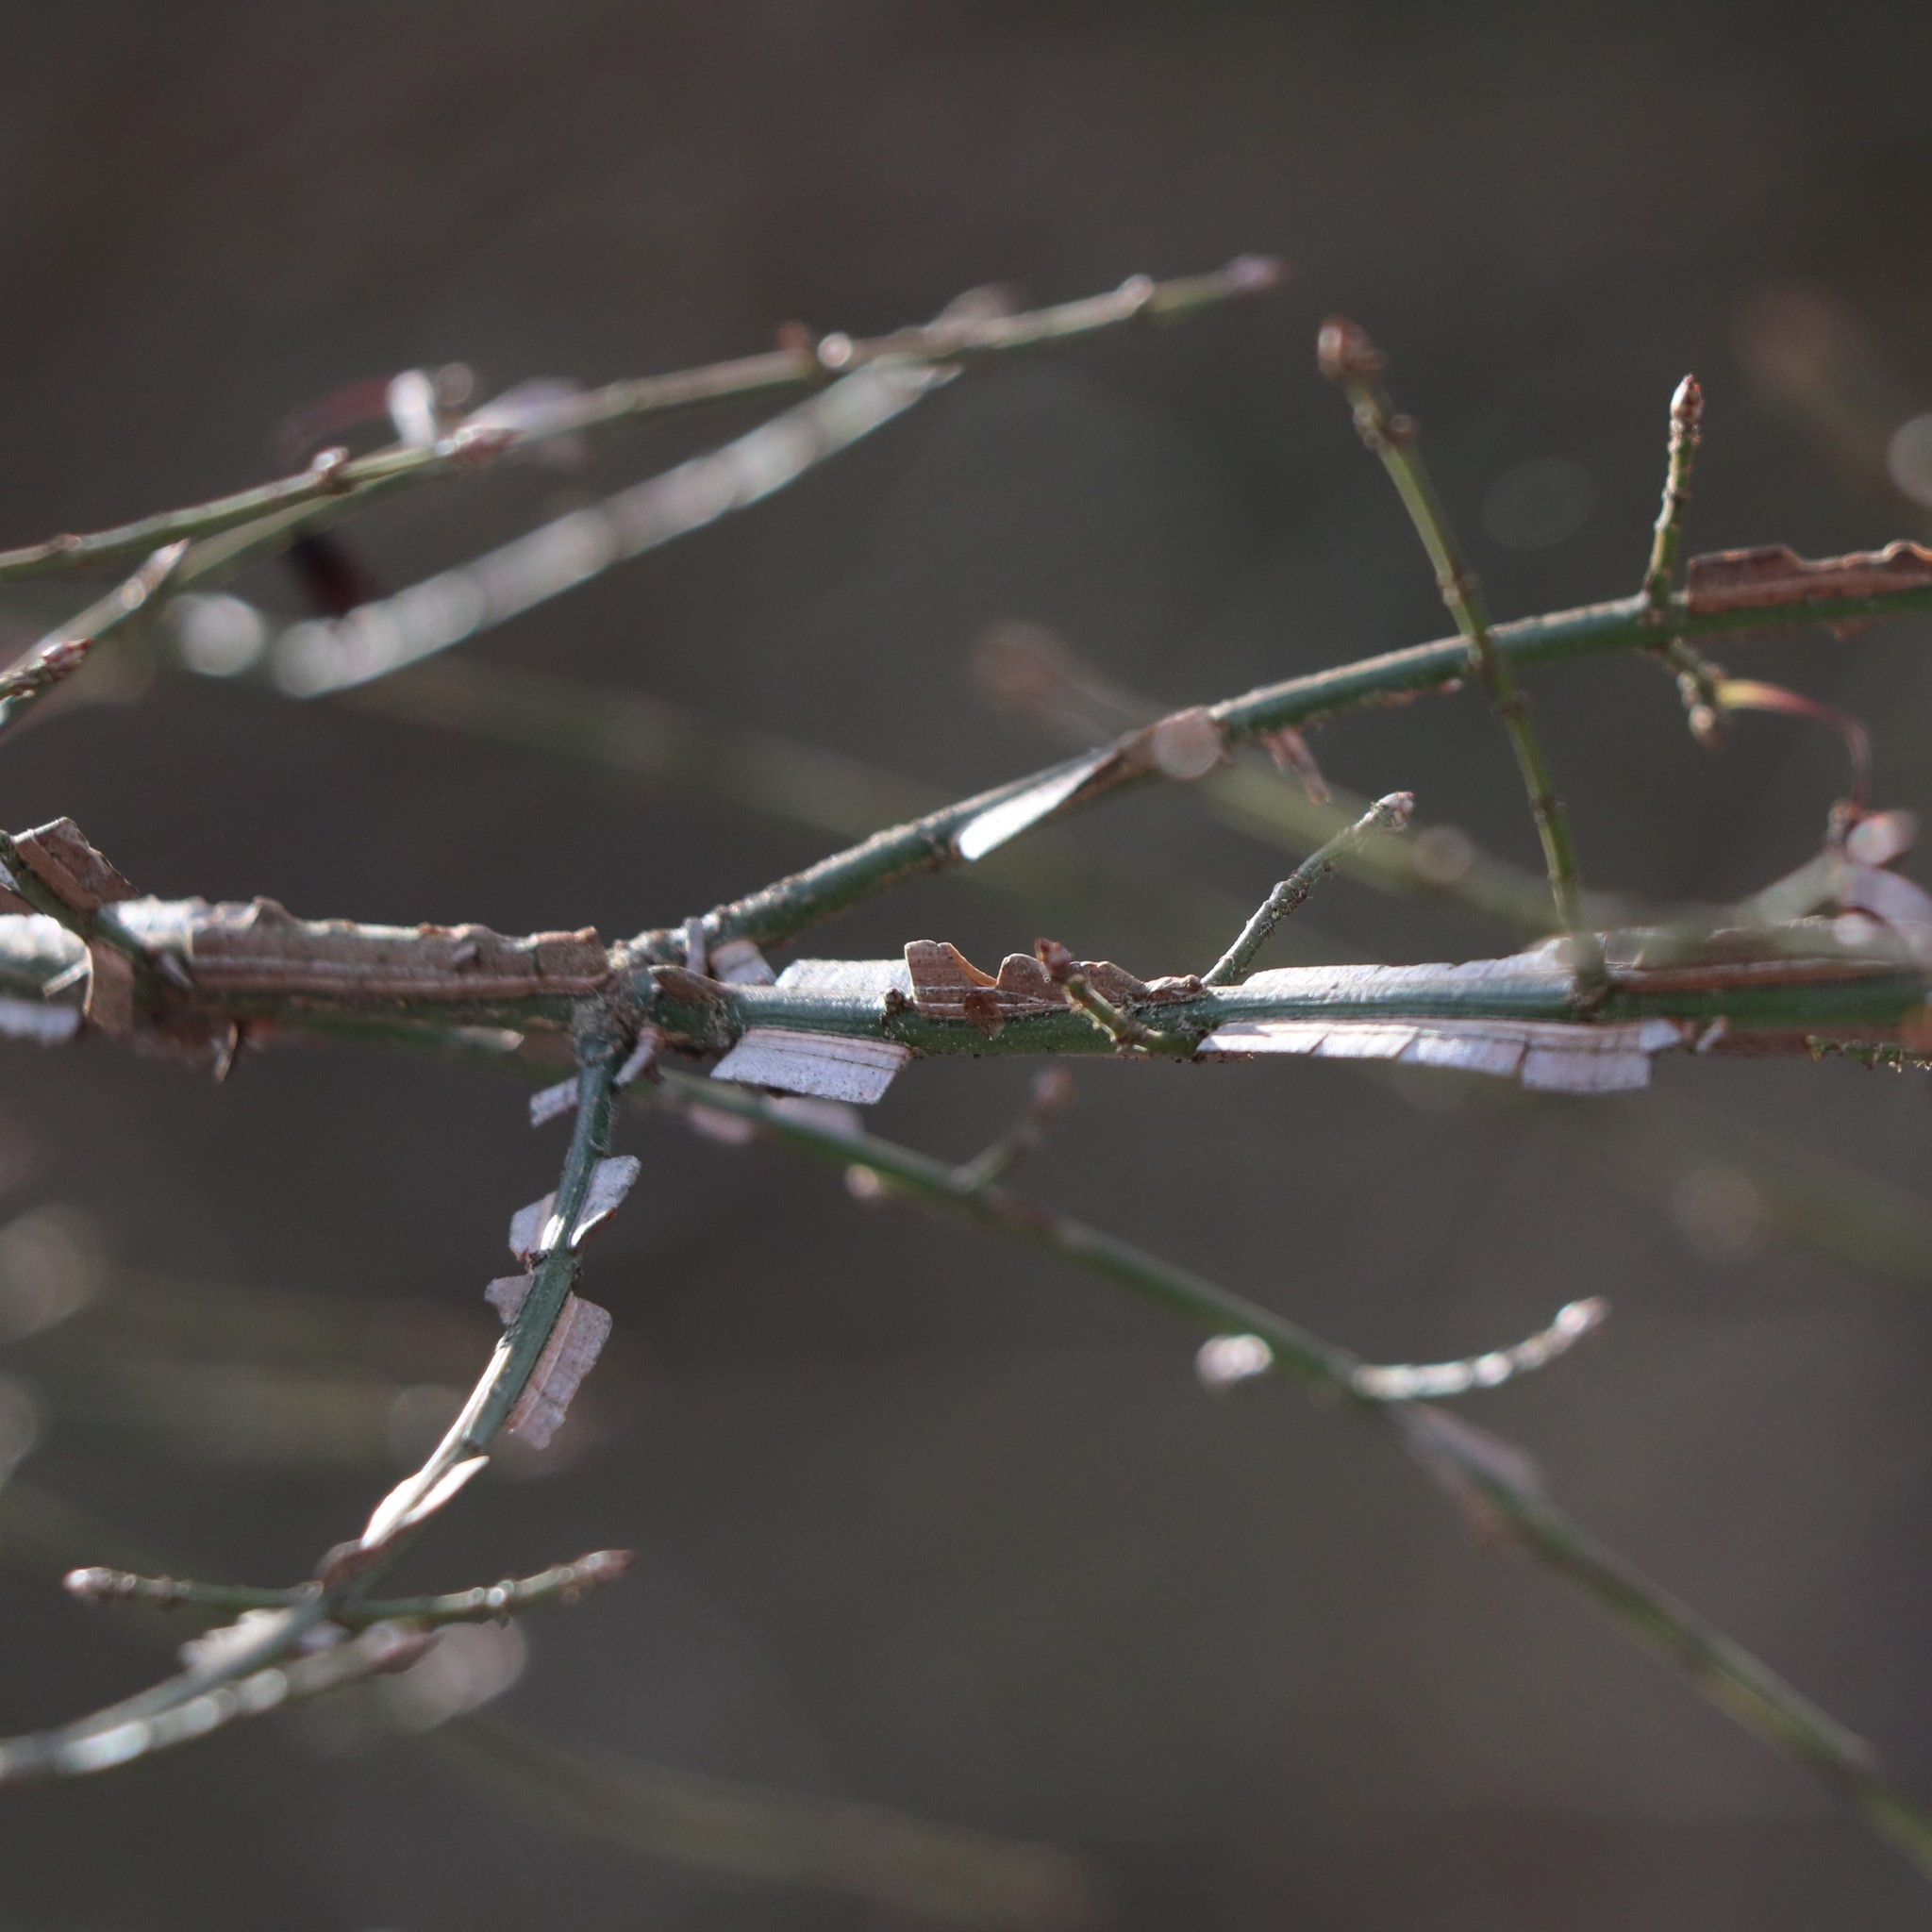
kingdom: Plantae
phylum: Tracheophyta
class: Magnoliopsida
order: Celastrales
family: Celastraceae
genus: Euonymus
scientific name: Euonymus alatus
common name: Winged euonymus
